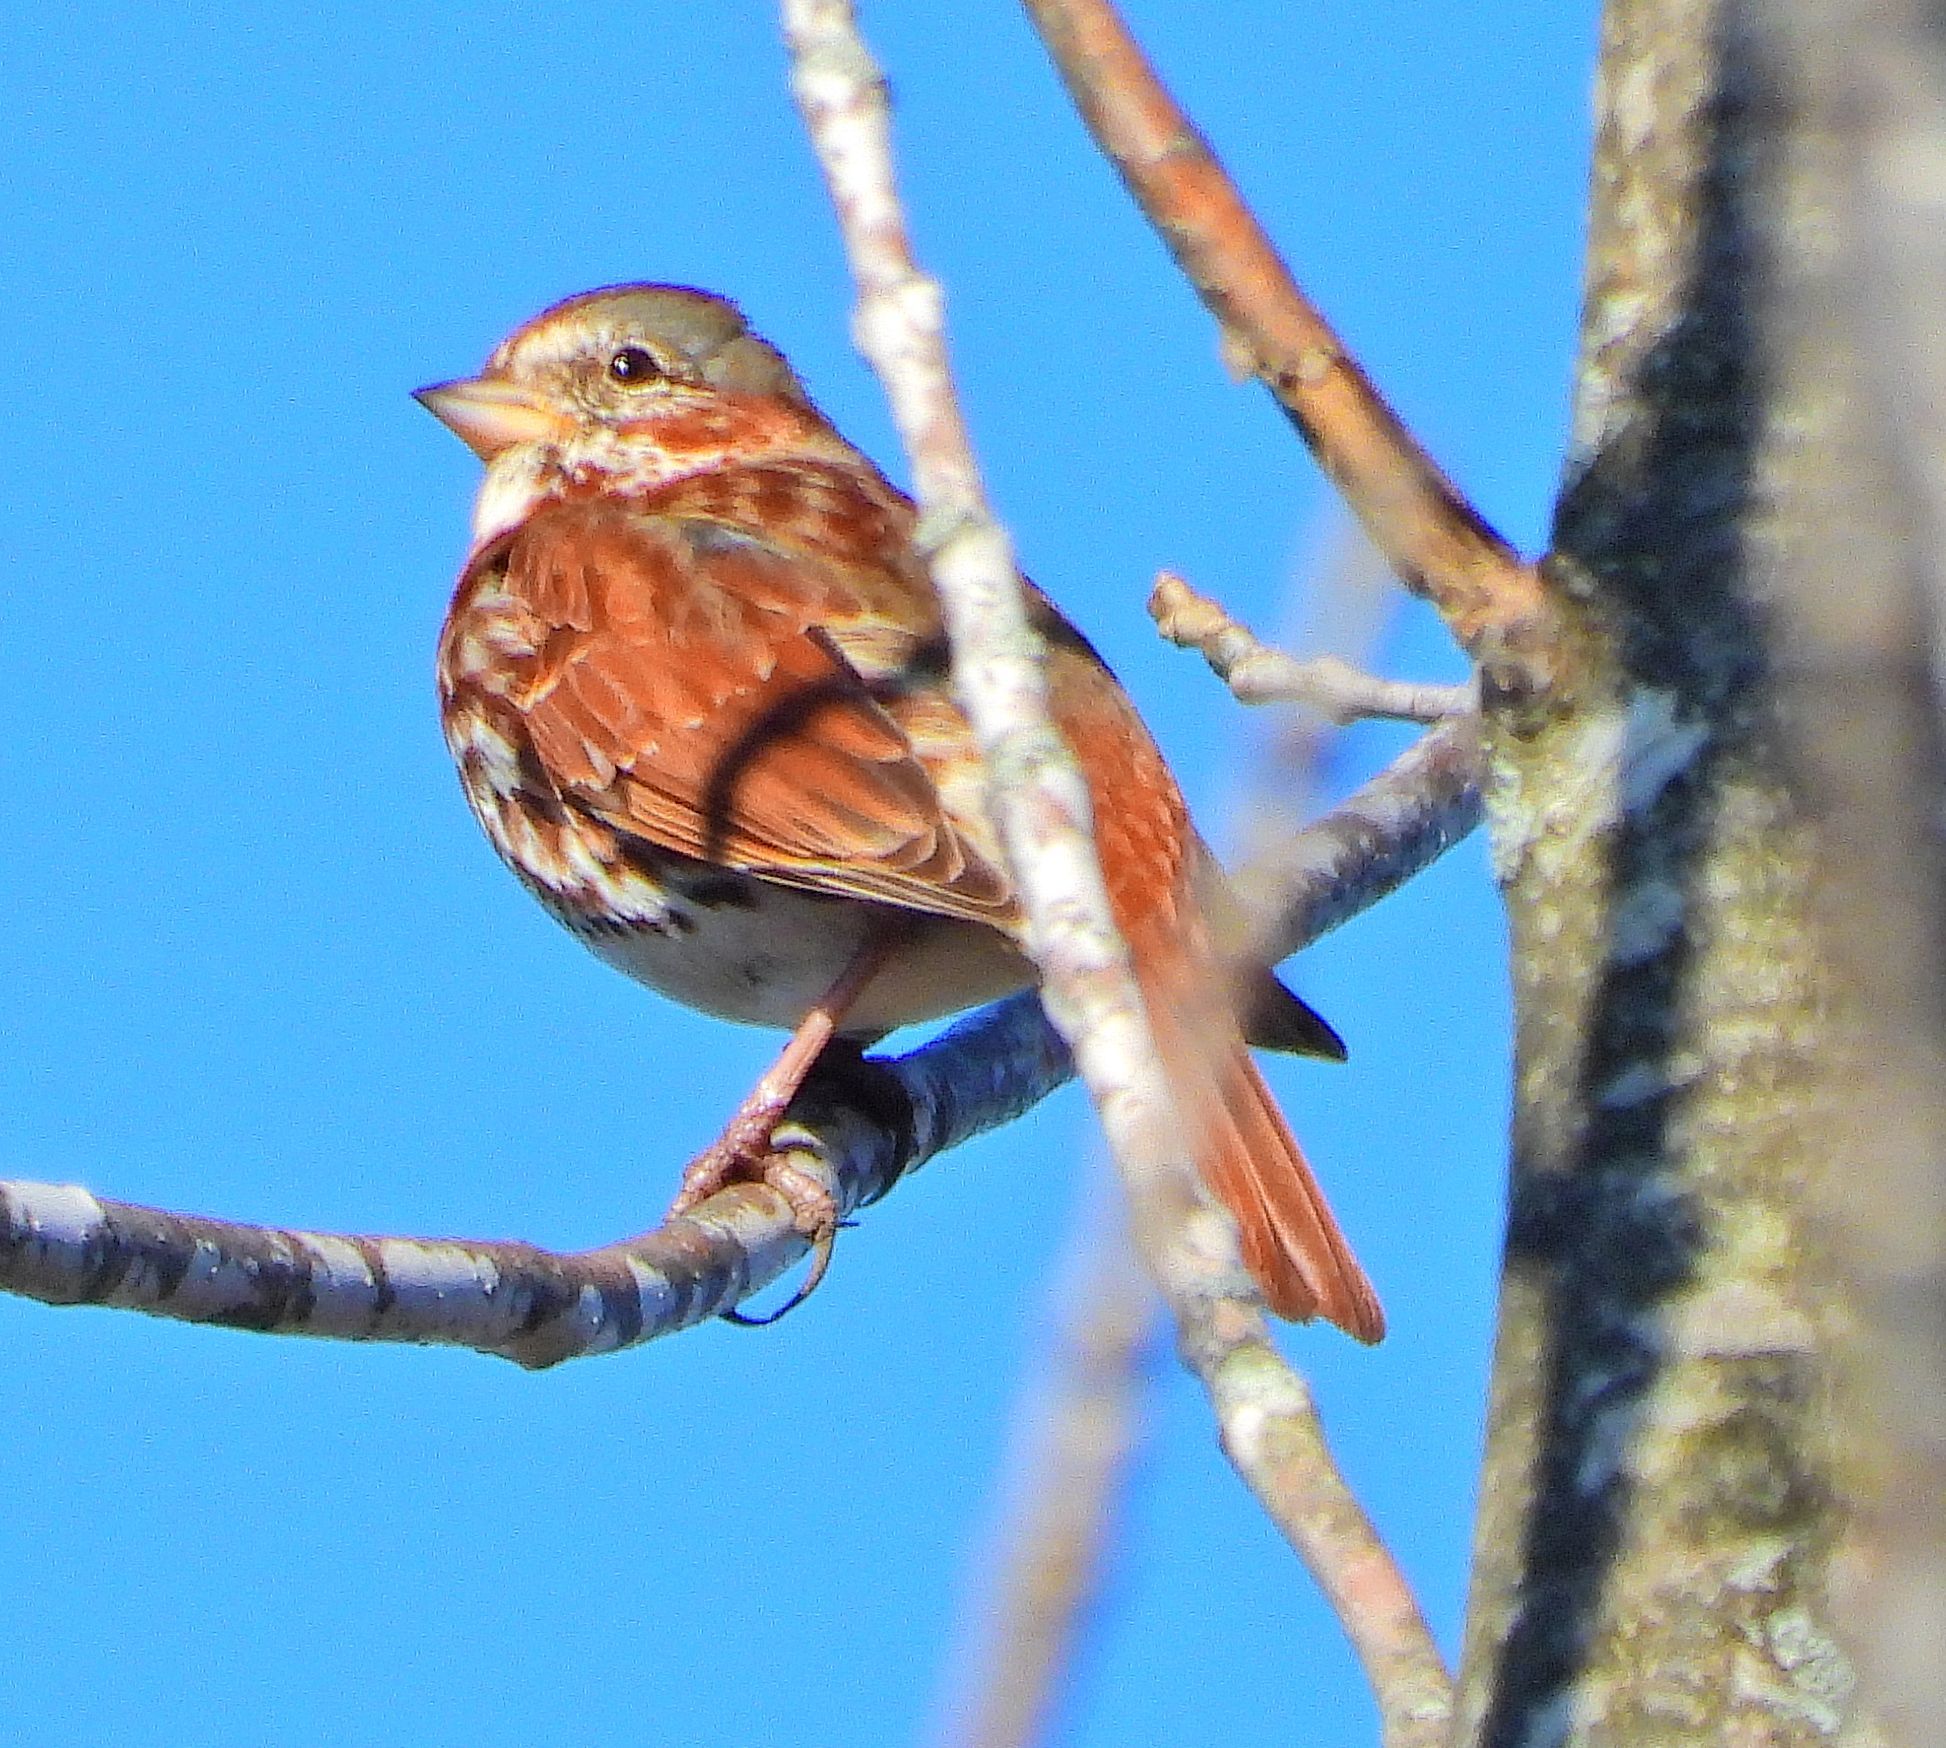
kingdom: Animalia
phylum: Chordata
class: Aves
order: Passeriformes
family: Passerellidae
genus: Passerella
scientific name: Passerella iliaca
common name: Fox sparrow
